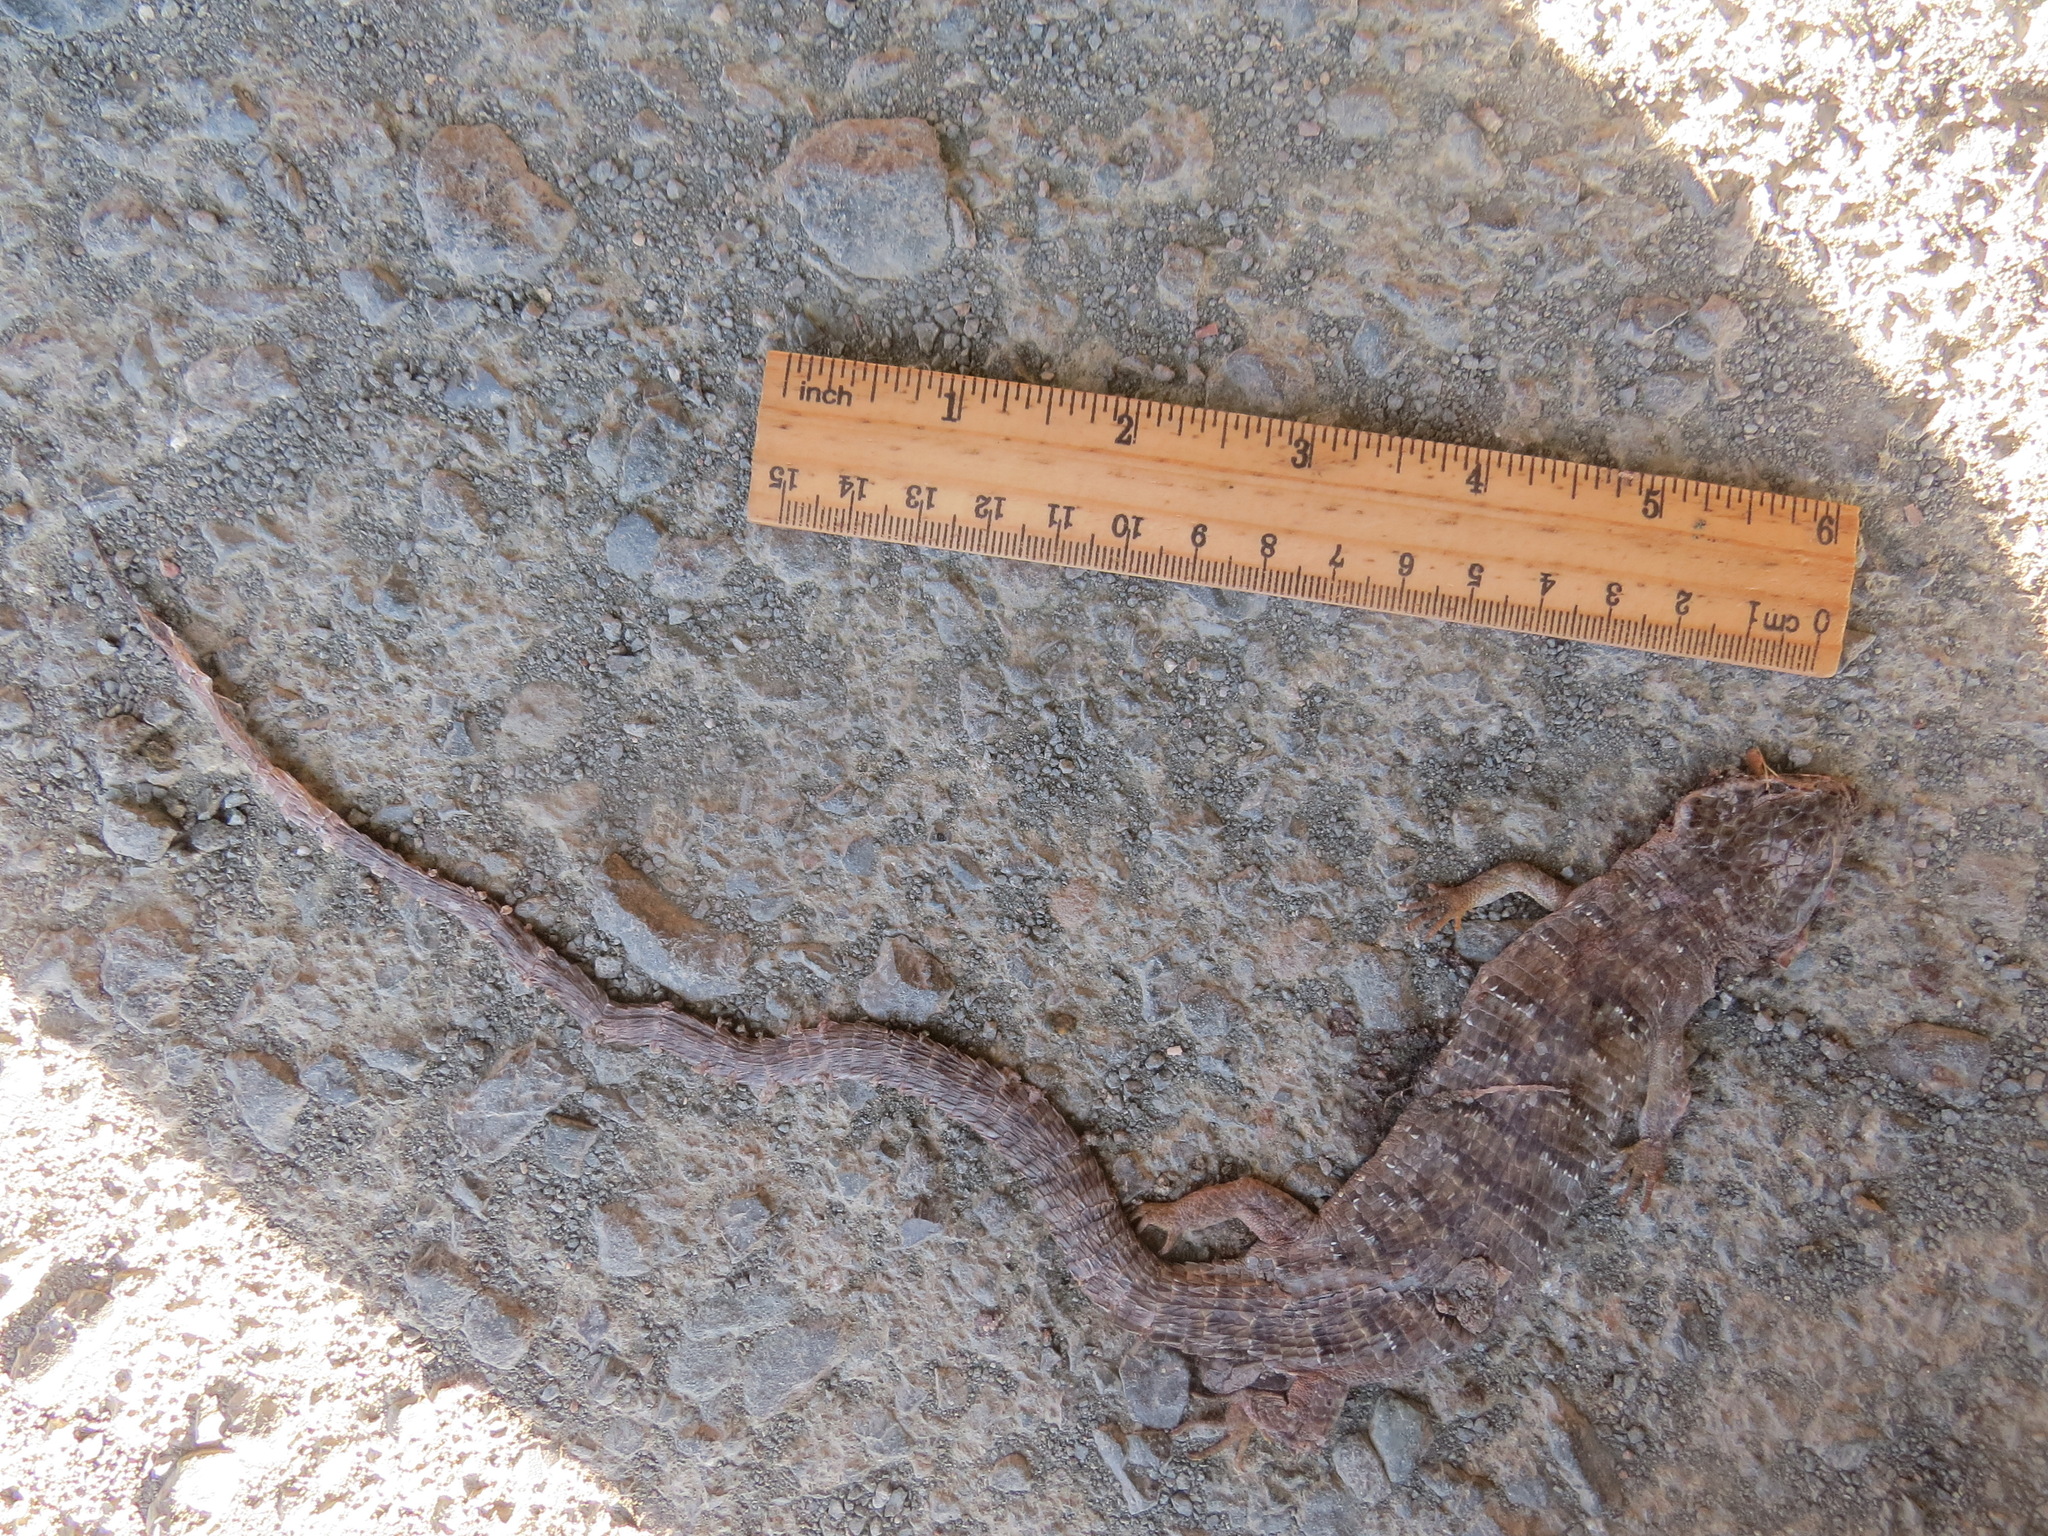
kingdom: Animalia
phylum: Chordata
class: Squamata
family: Anguidae
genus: Elgaria
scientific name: Elgaria multicarinata
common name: Southern alligator lizard
